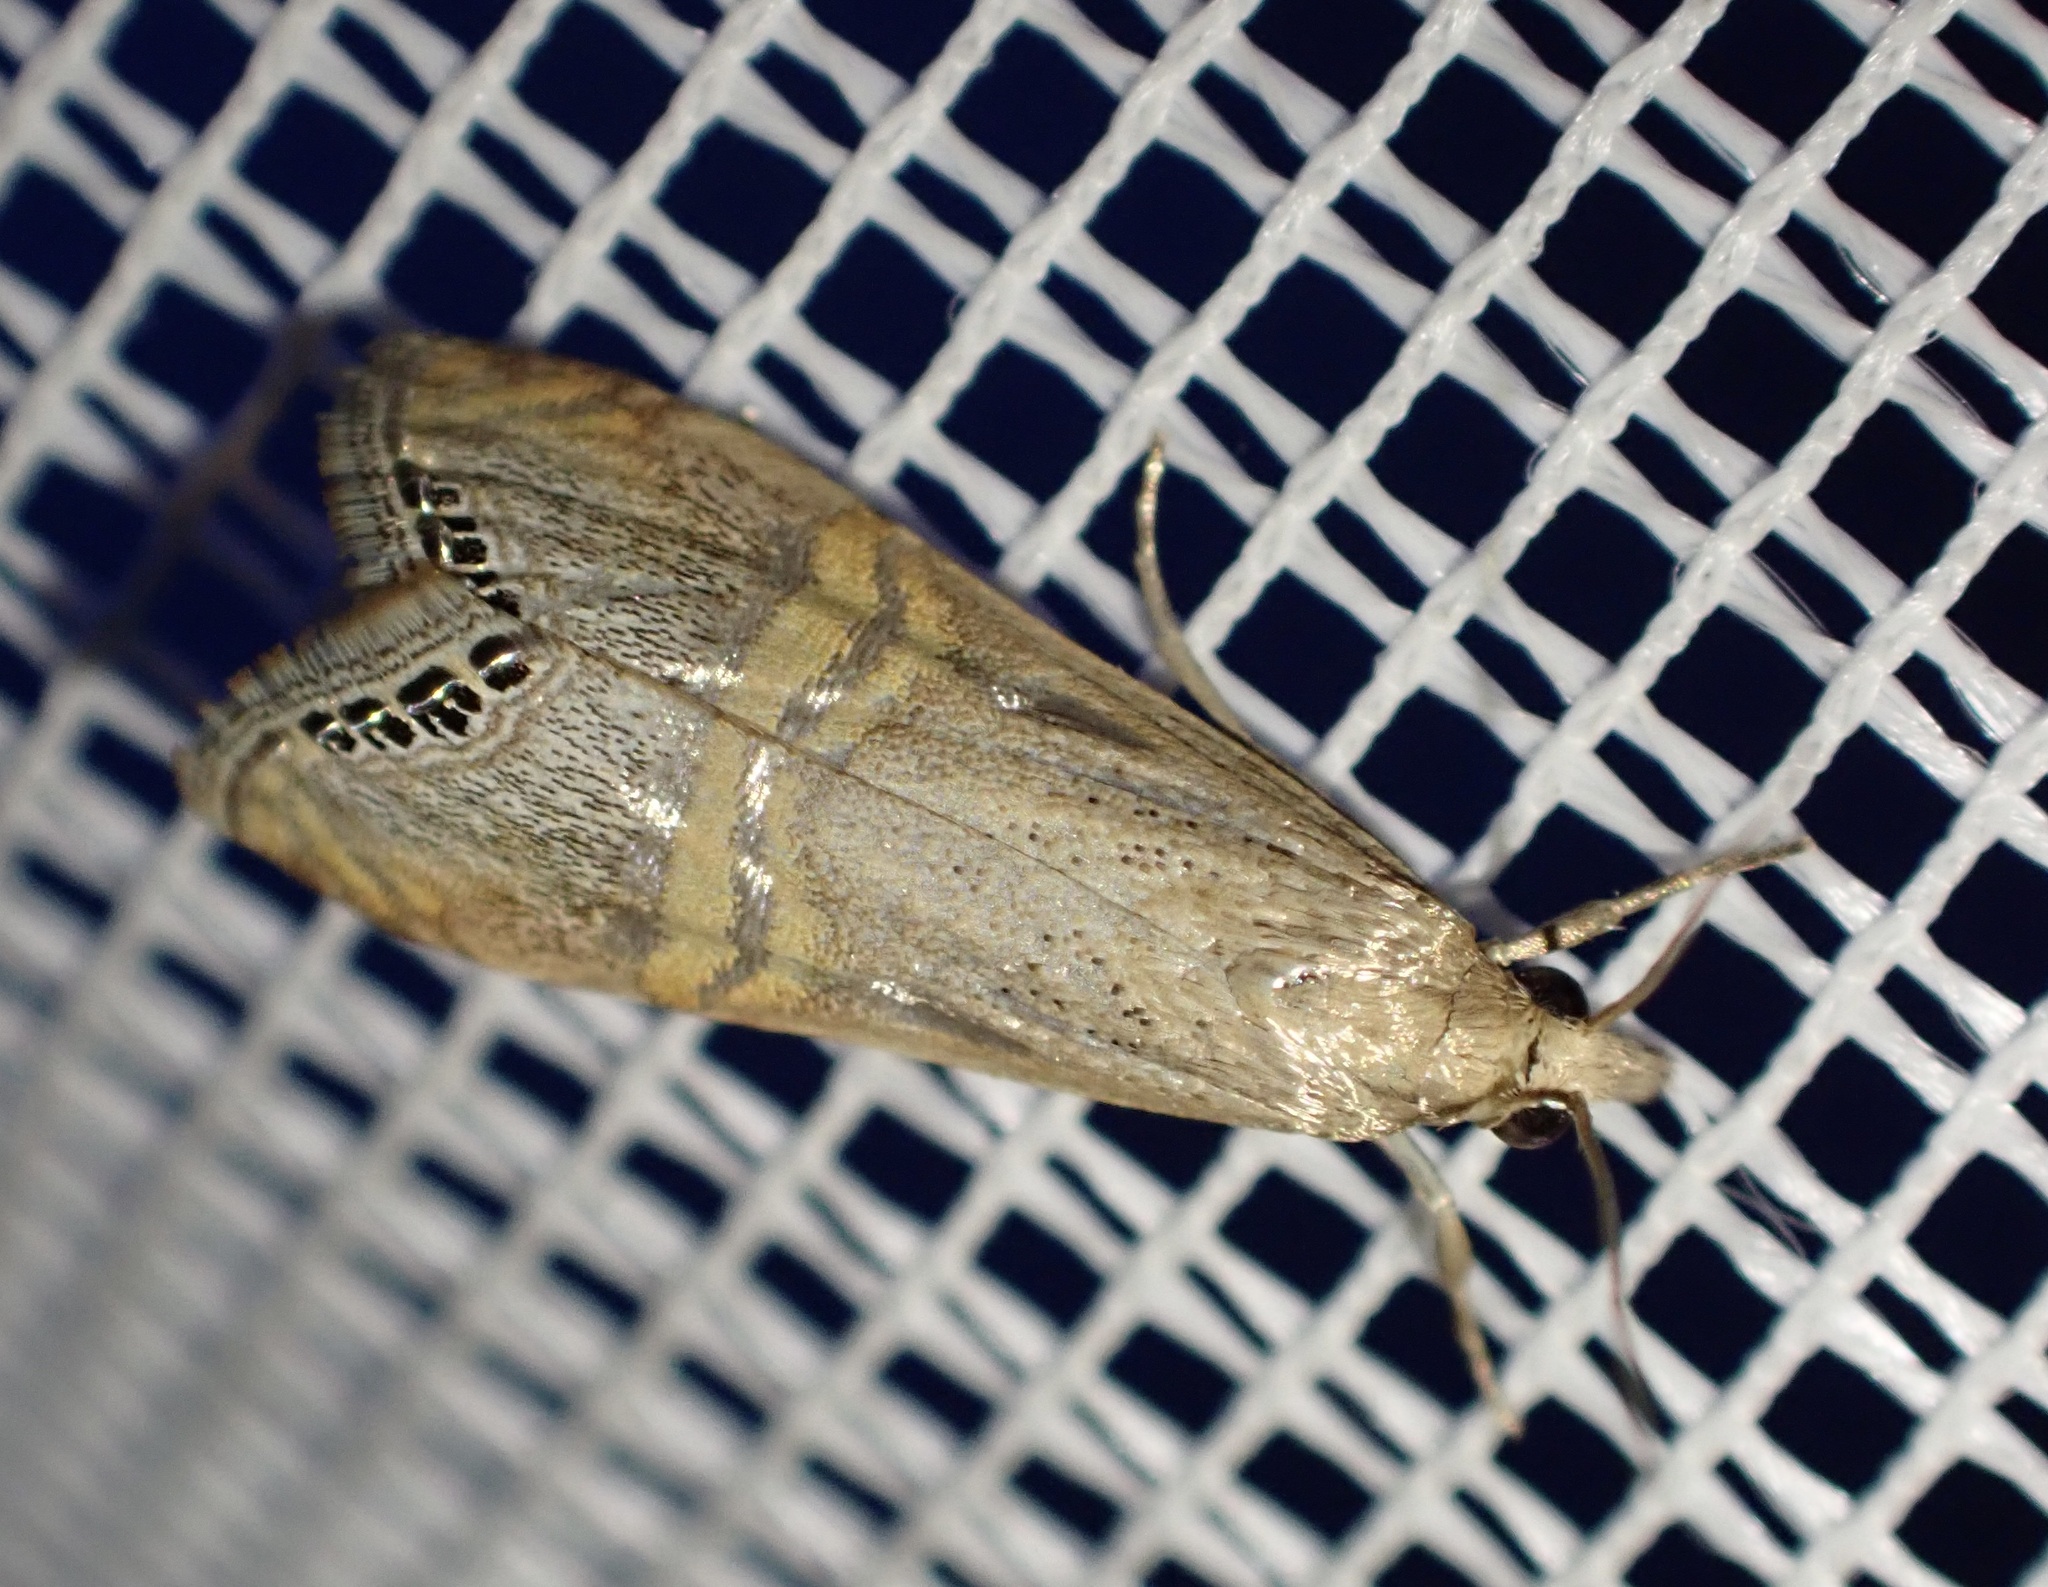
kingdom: Animalia
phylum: Arthropoda
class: Insecta
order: Lepidoptera
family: Crambidae
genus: Euchromius
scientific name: Euchromius ocellea
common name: Necklace veneer moth
